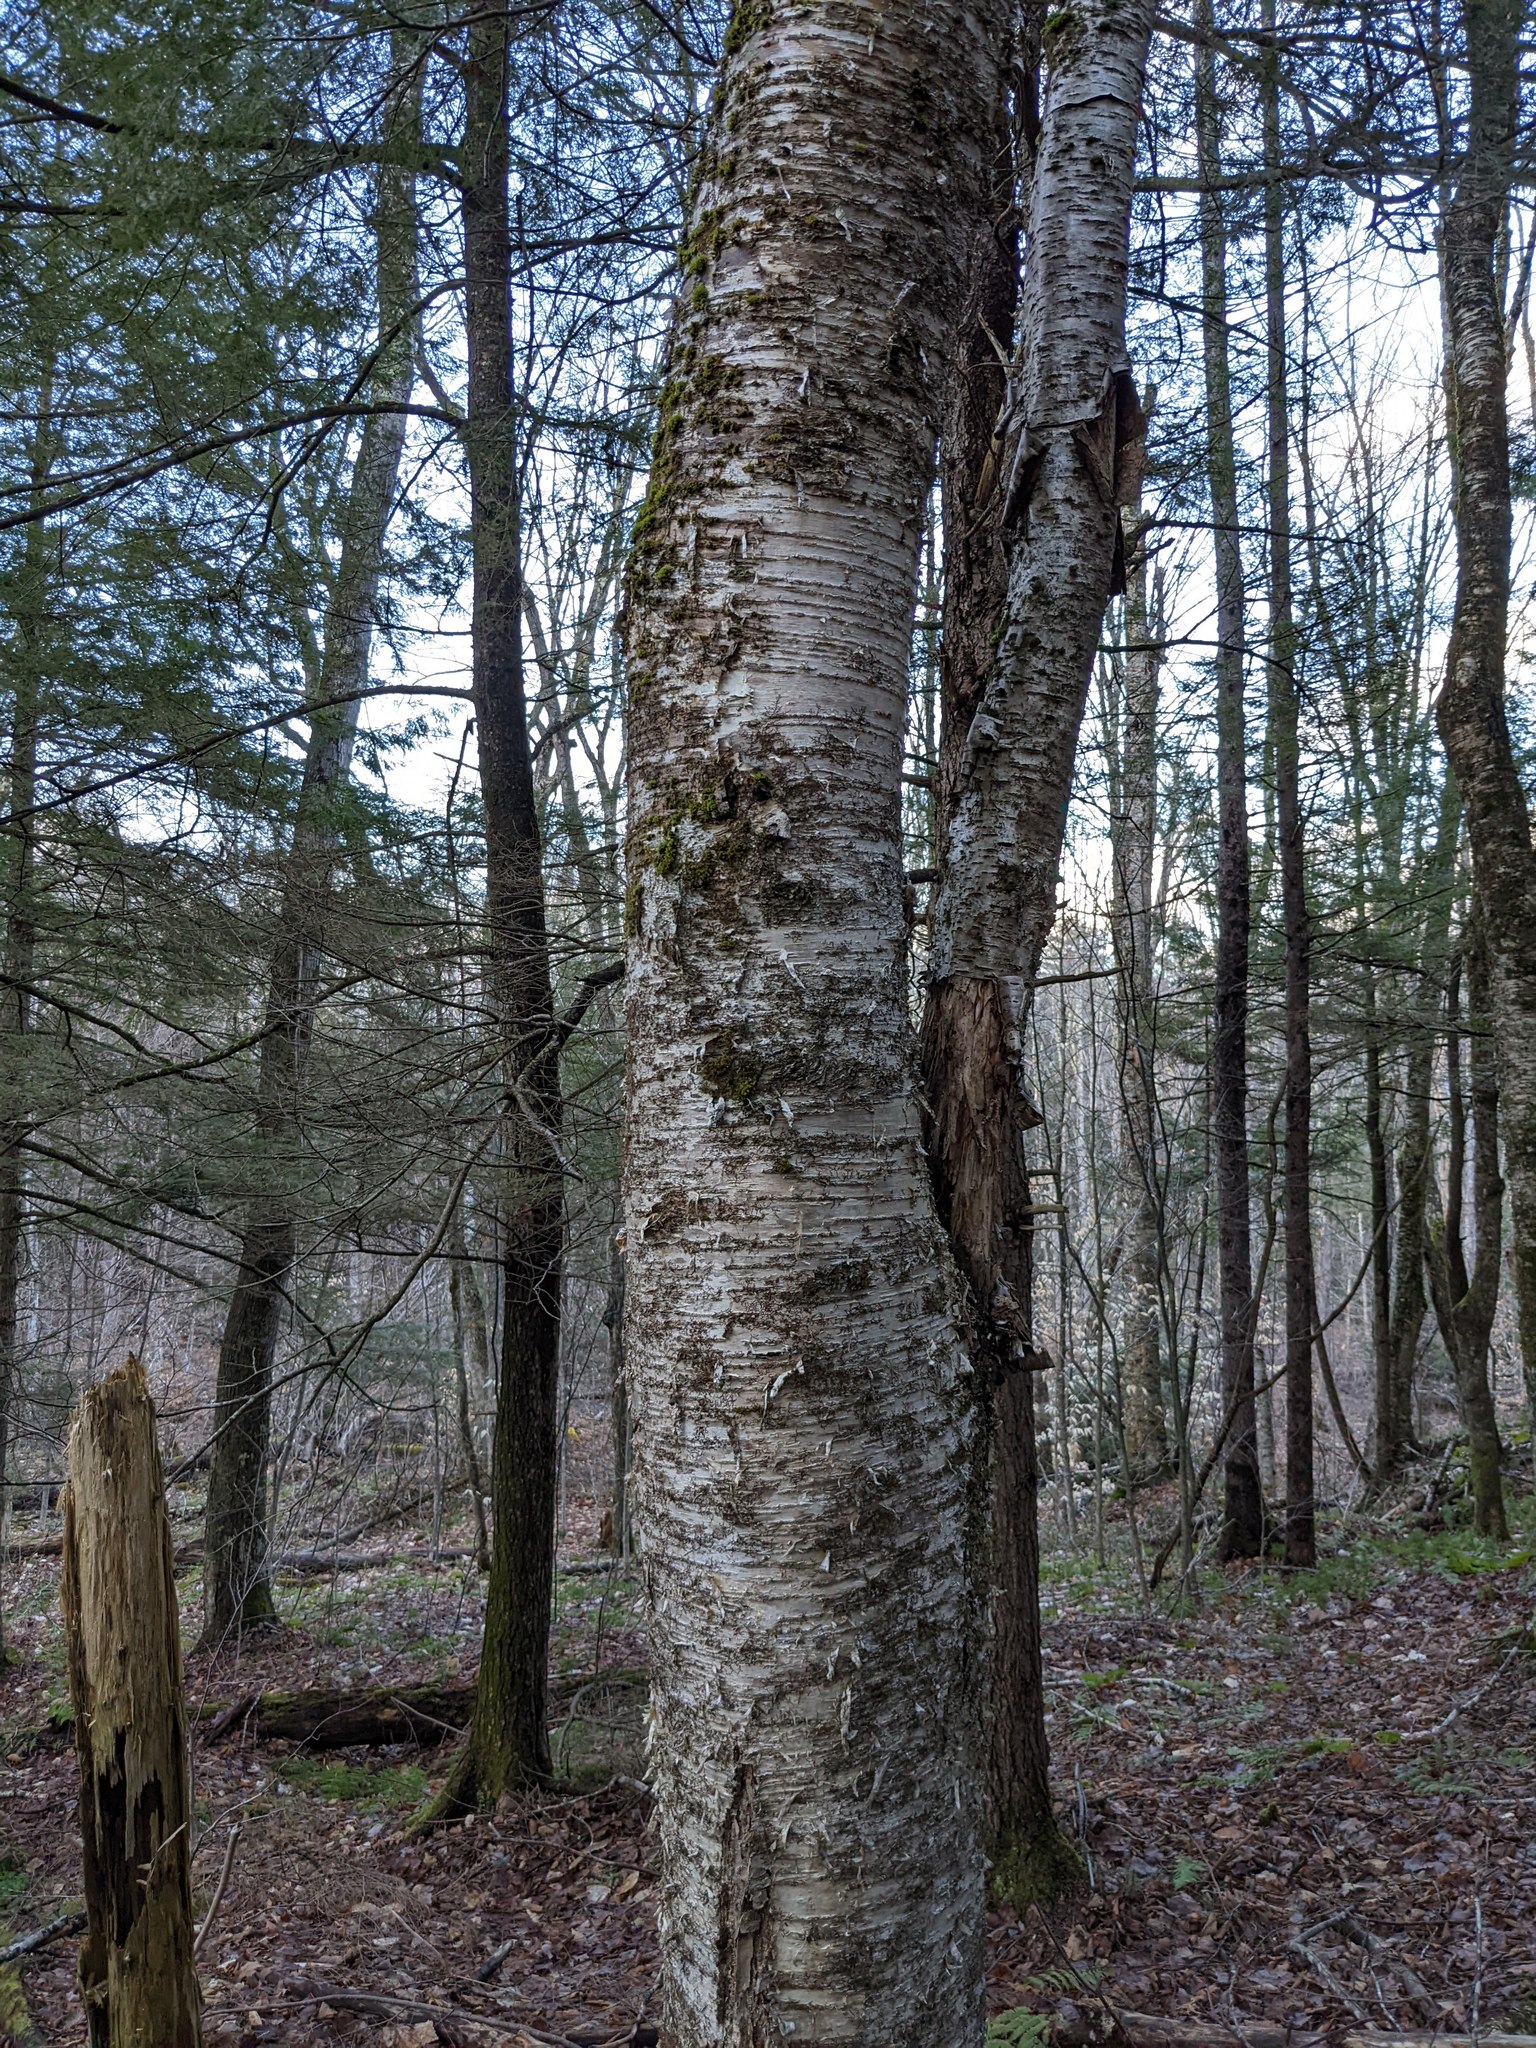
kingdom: Plantae
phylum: Tracheophyta
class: Magnoliopsida
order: Fagales
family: Betulaceae
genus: Betula
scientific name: Betula alleghaniensis
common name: Yellow birch
